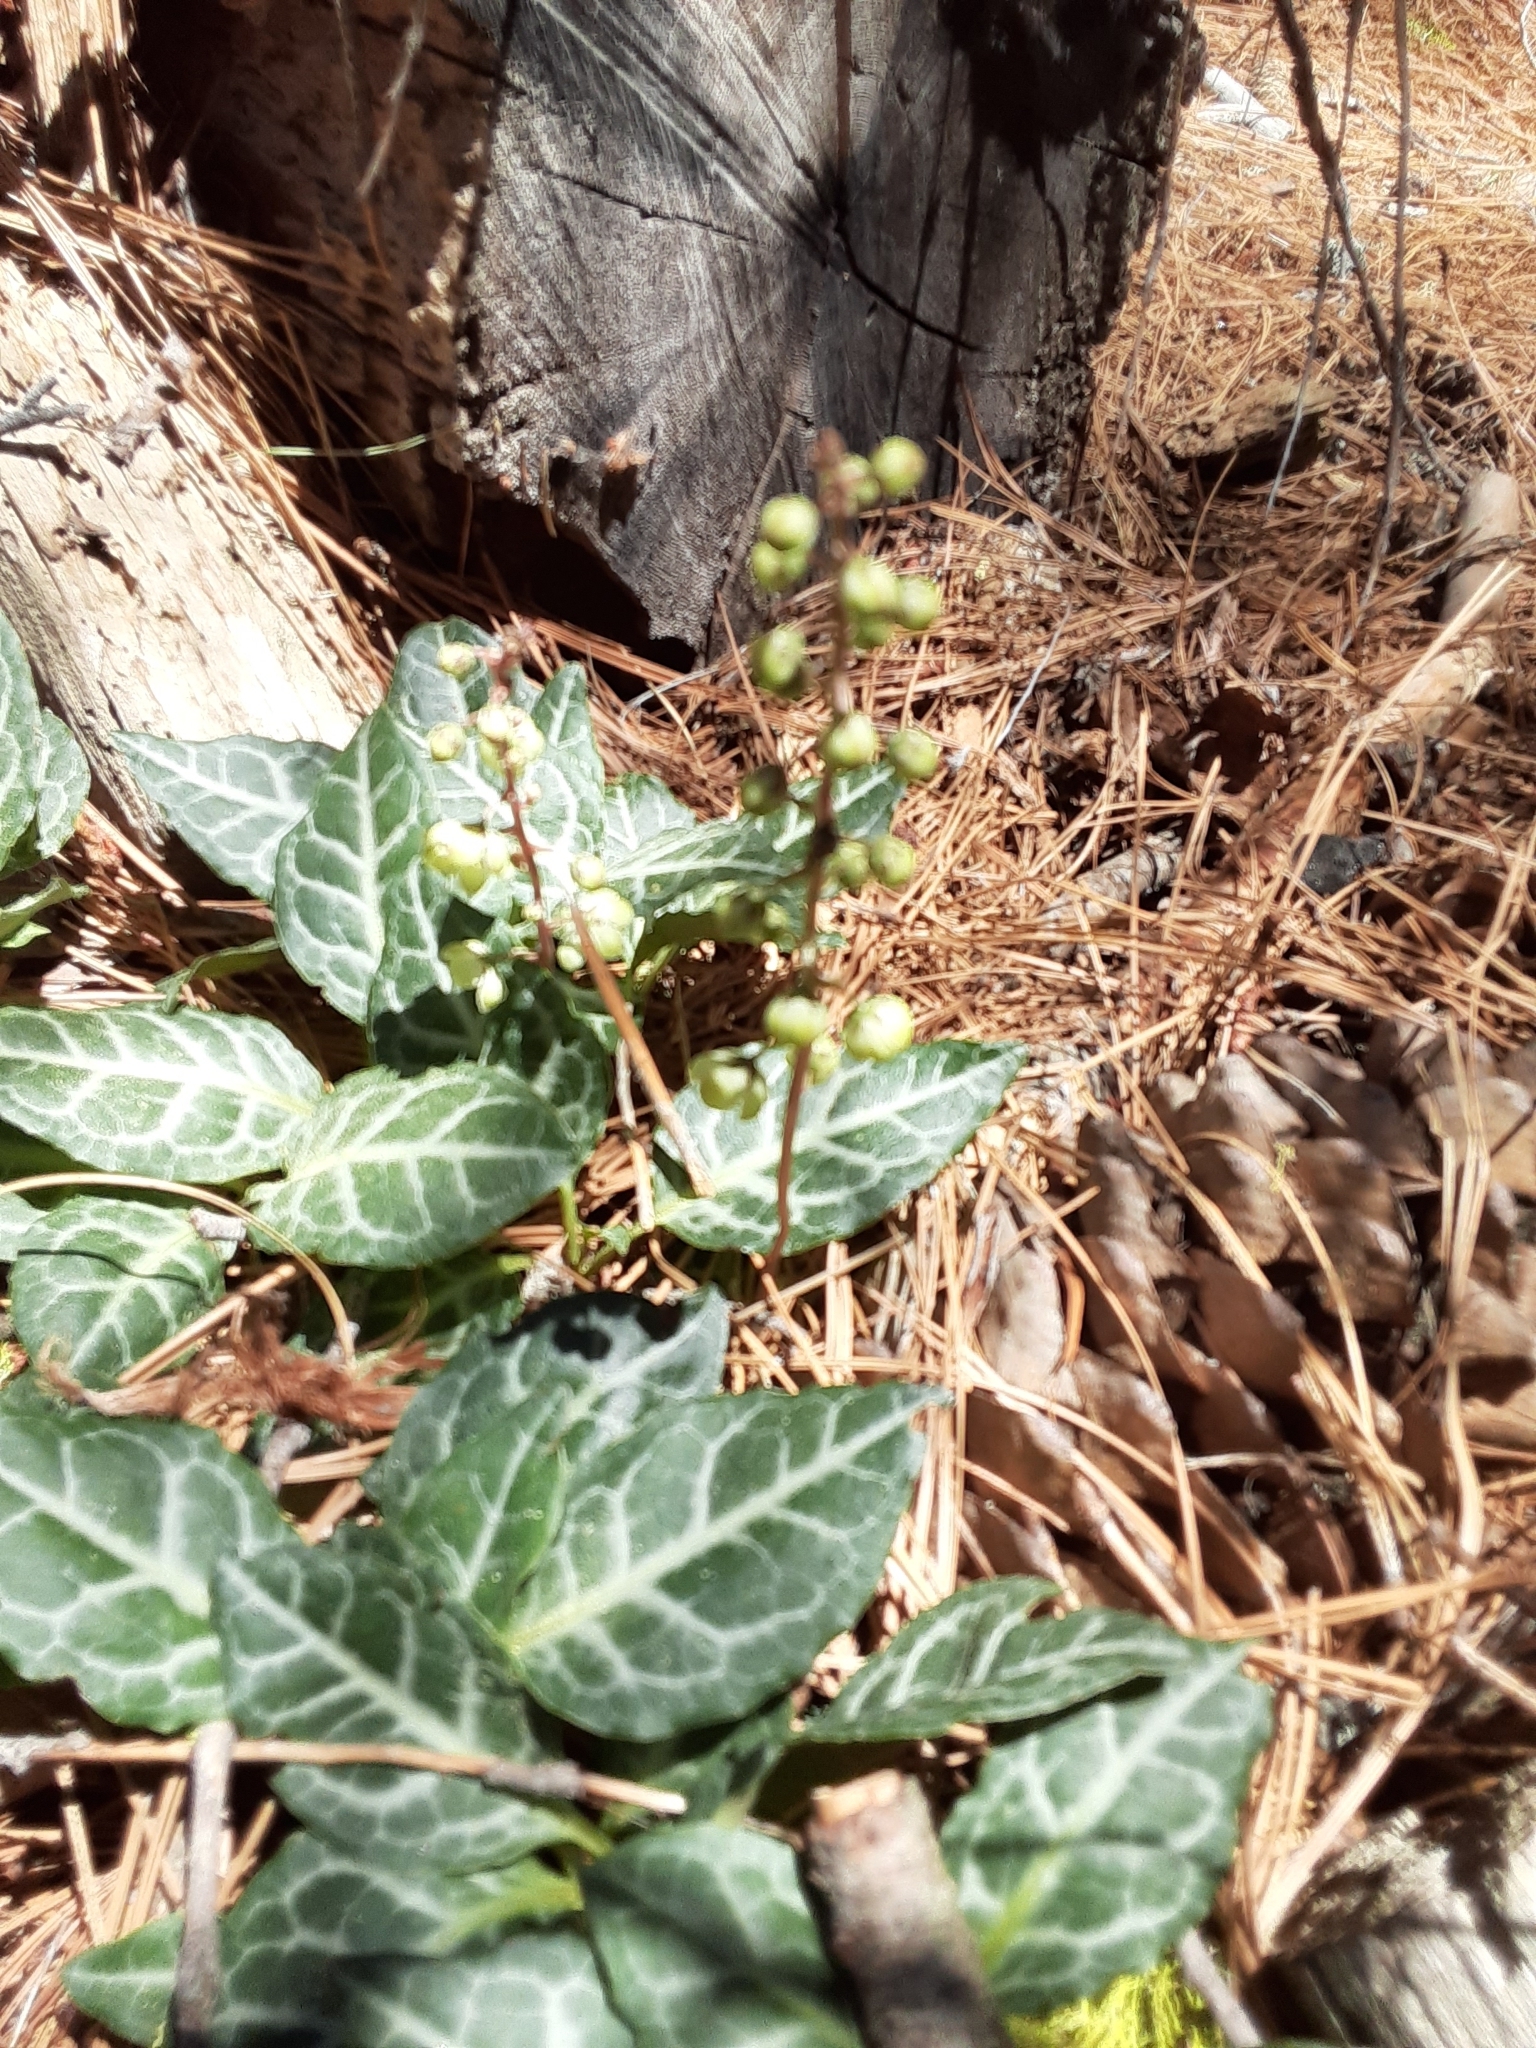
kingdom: Plantae
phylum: Tracheophyta
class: Magnoliopsida
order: Ericales
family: Ericaceae
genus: Pyrola
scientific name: Pyrola picta
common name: White-vein wintergreen
